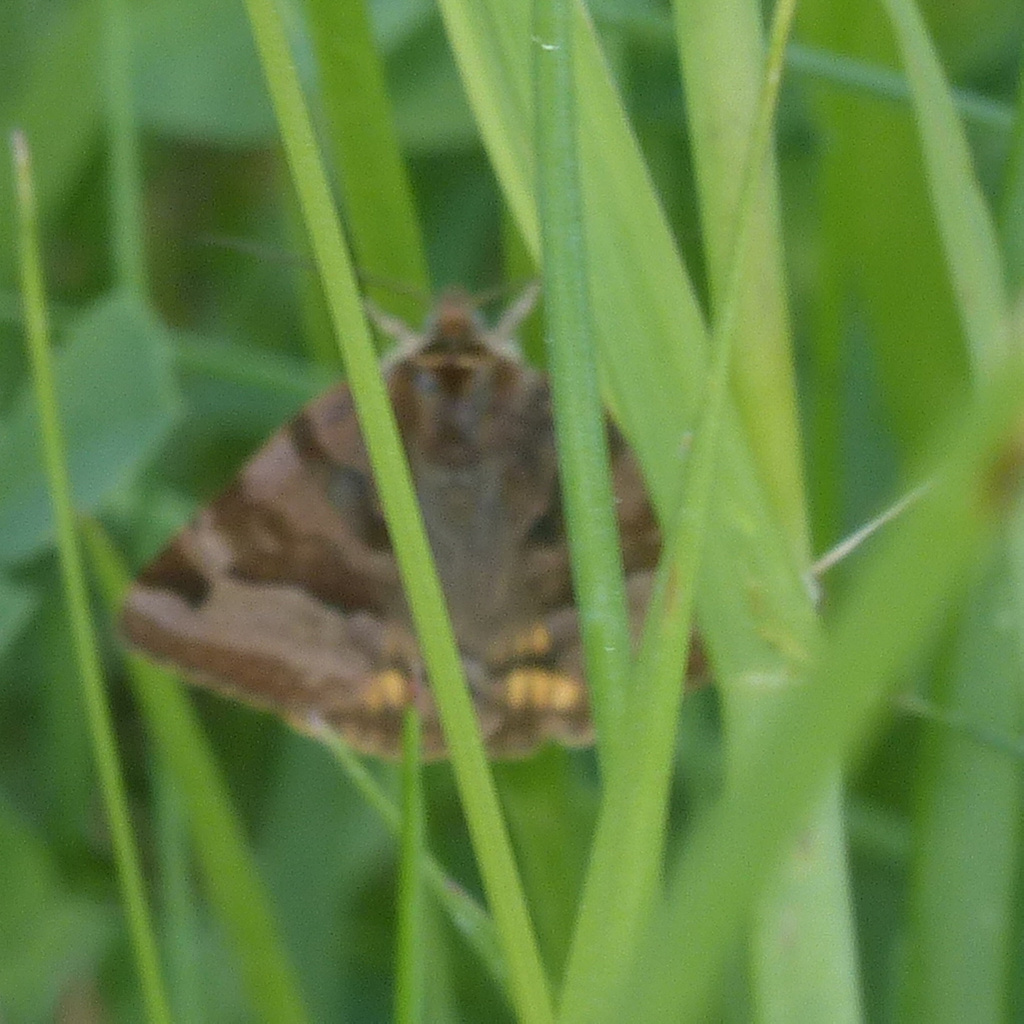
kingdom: Animalia
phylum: Arthropoda
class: Insecta
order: Lepidoptera
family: Erebidae
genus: Euclidia
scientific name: Euclidia glyphica
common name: Burnet companion
